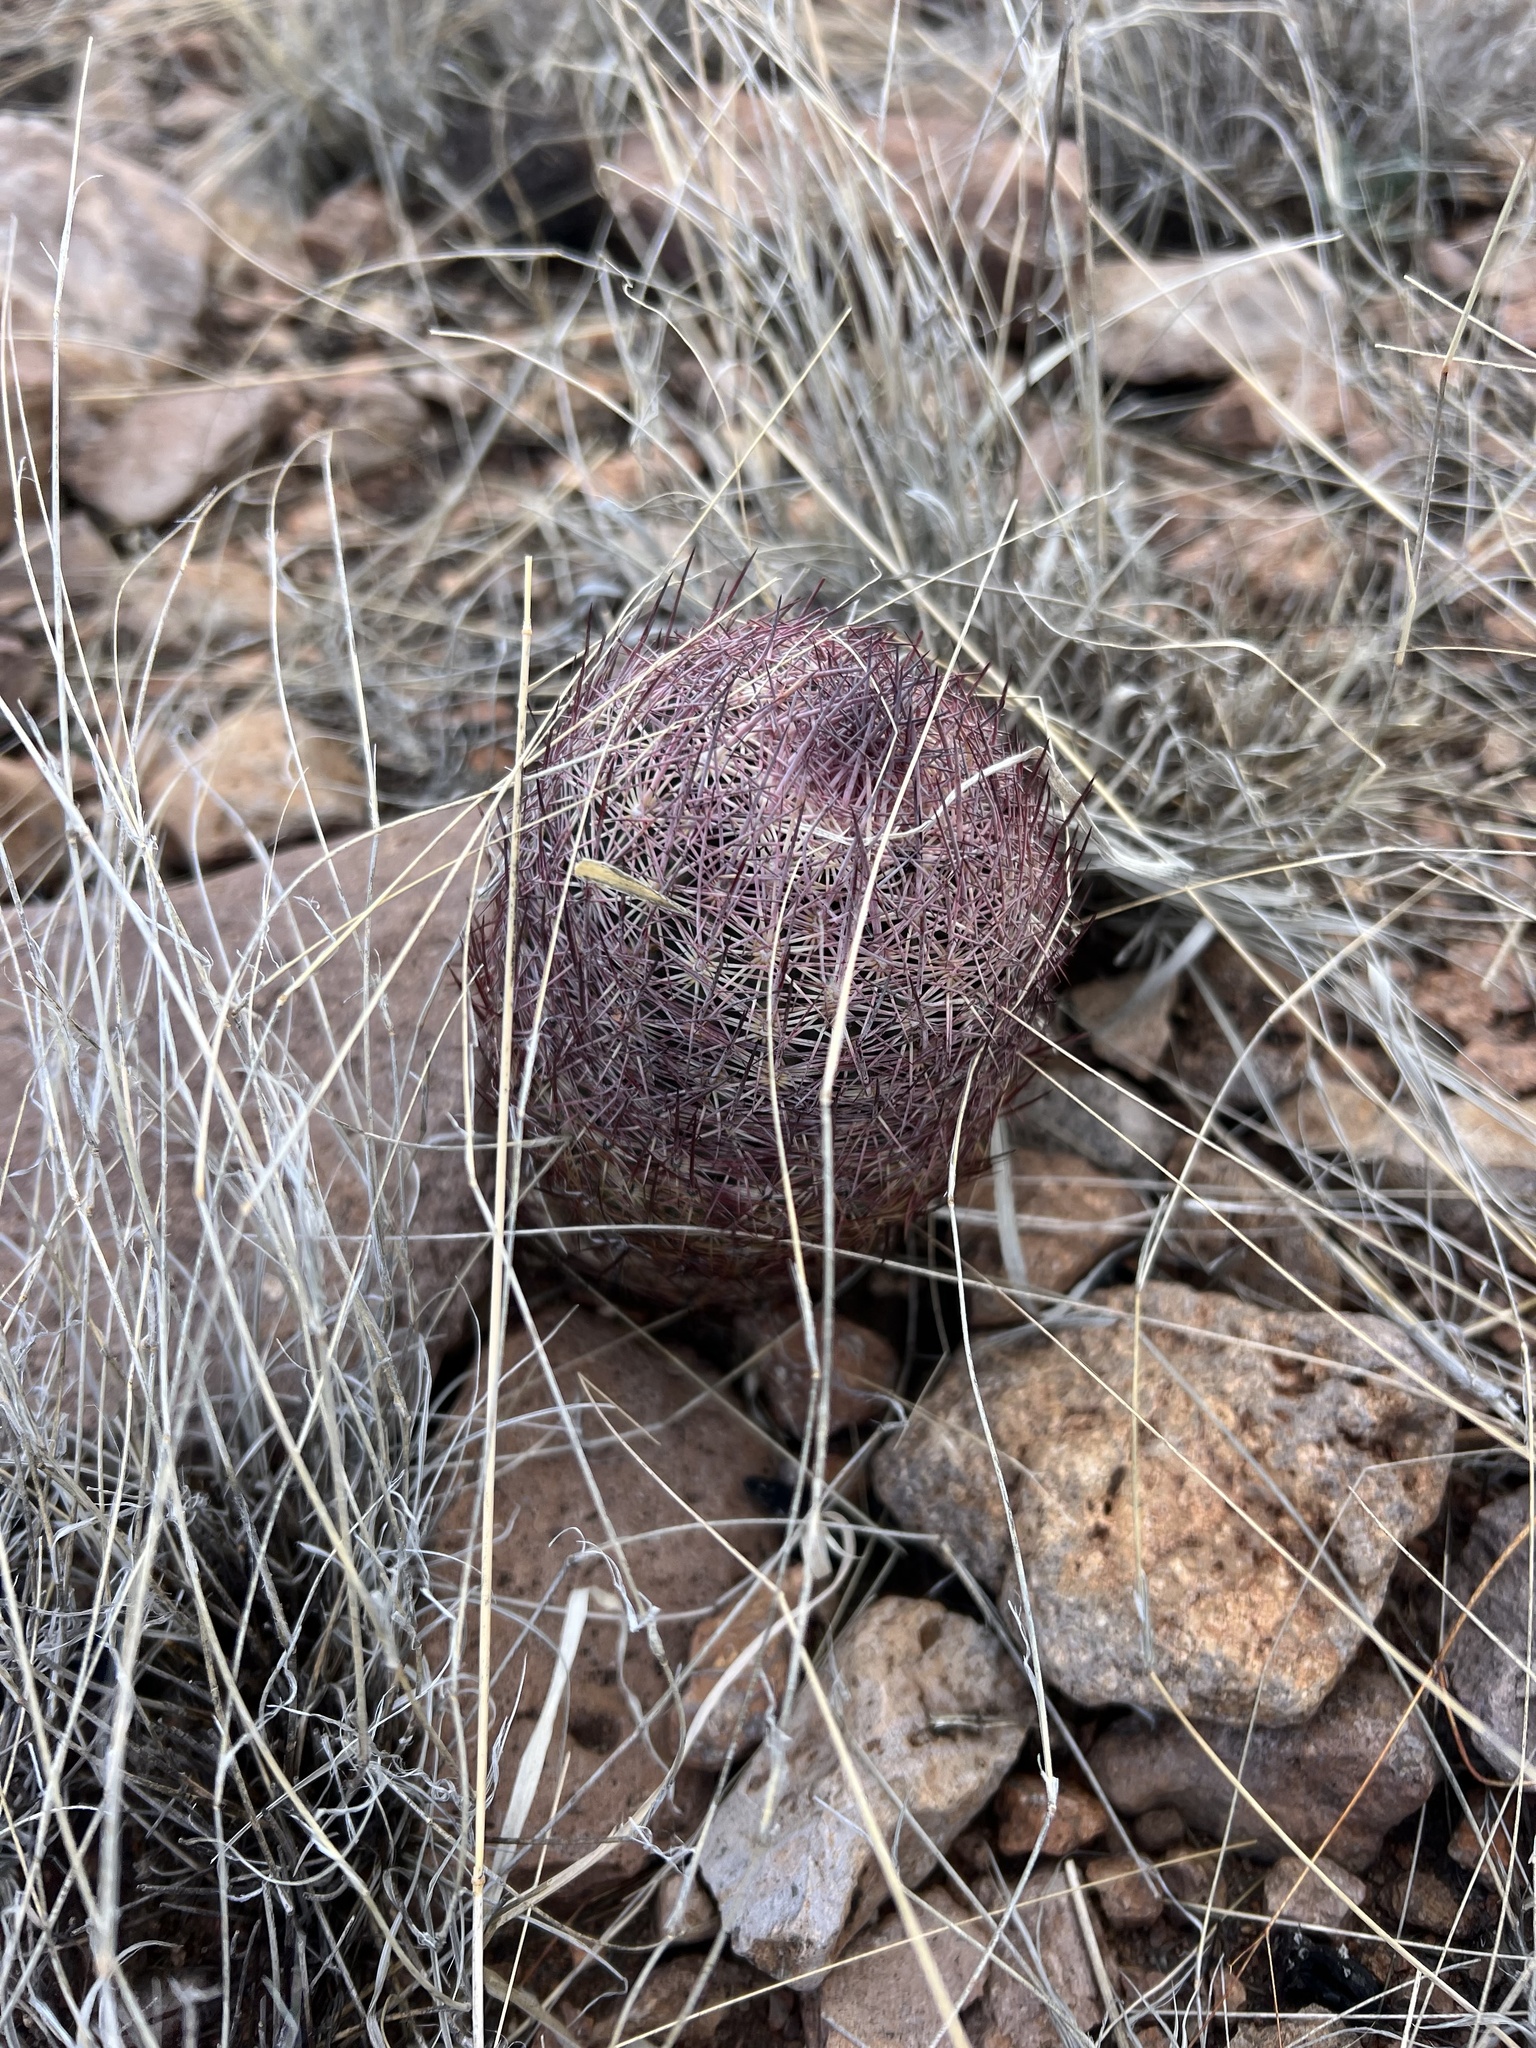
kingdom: Plantae
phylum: Tracheophyta
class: Magnoliopsida
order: Caryophyllales
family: Cactaceae
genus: Sclerocactus
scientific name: Sclerocactus johnsonii
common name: Eight-spine fishhook cactus
